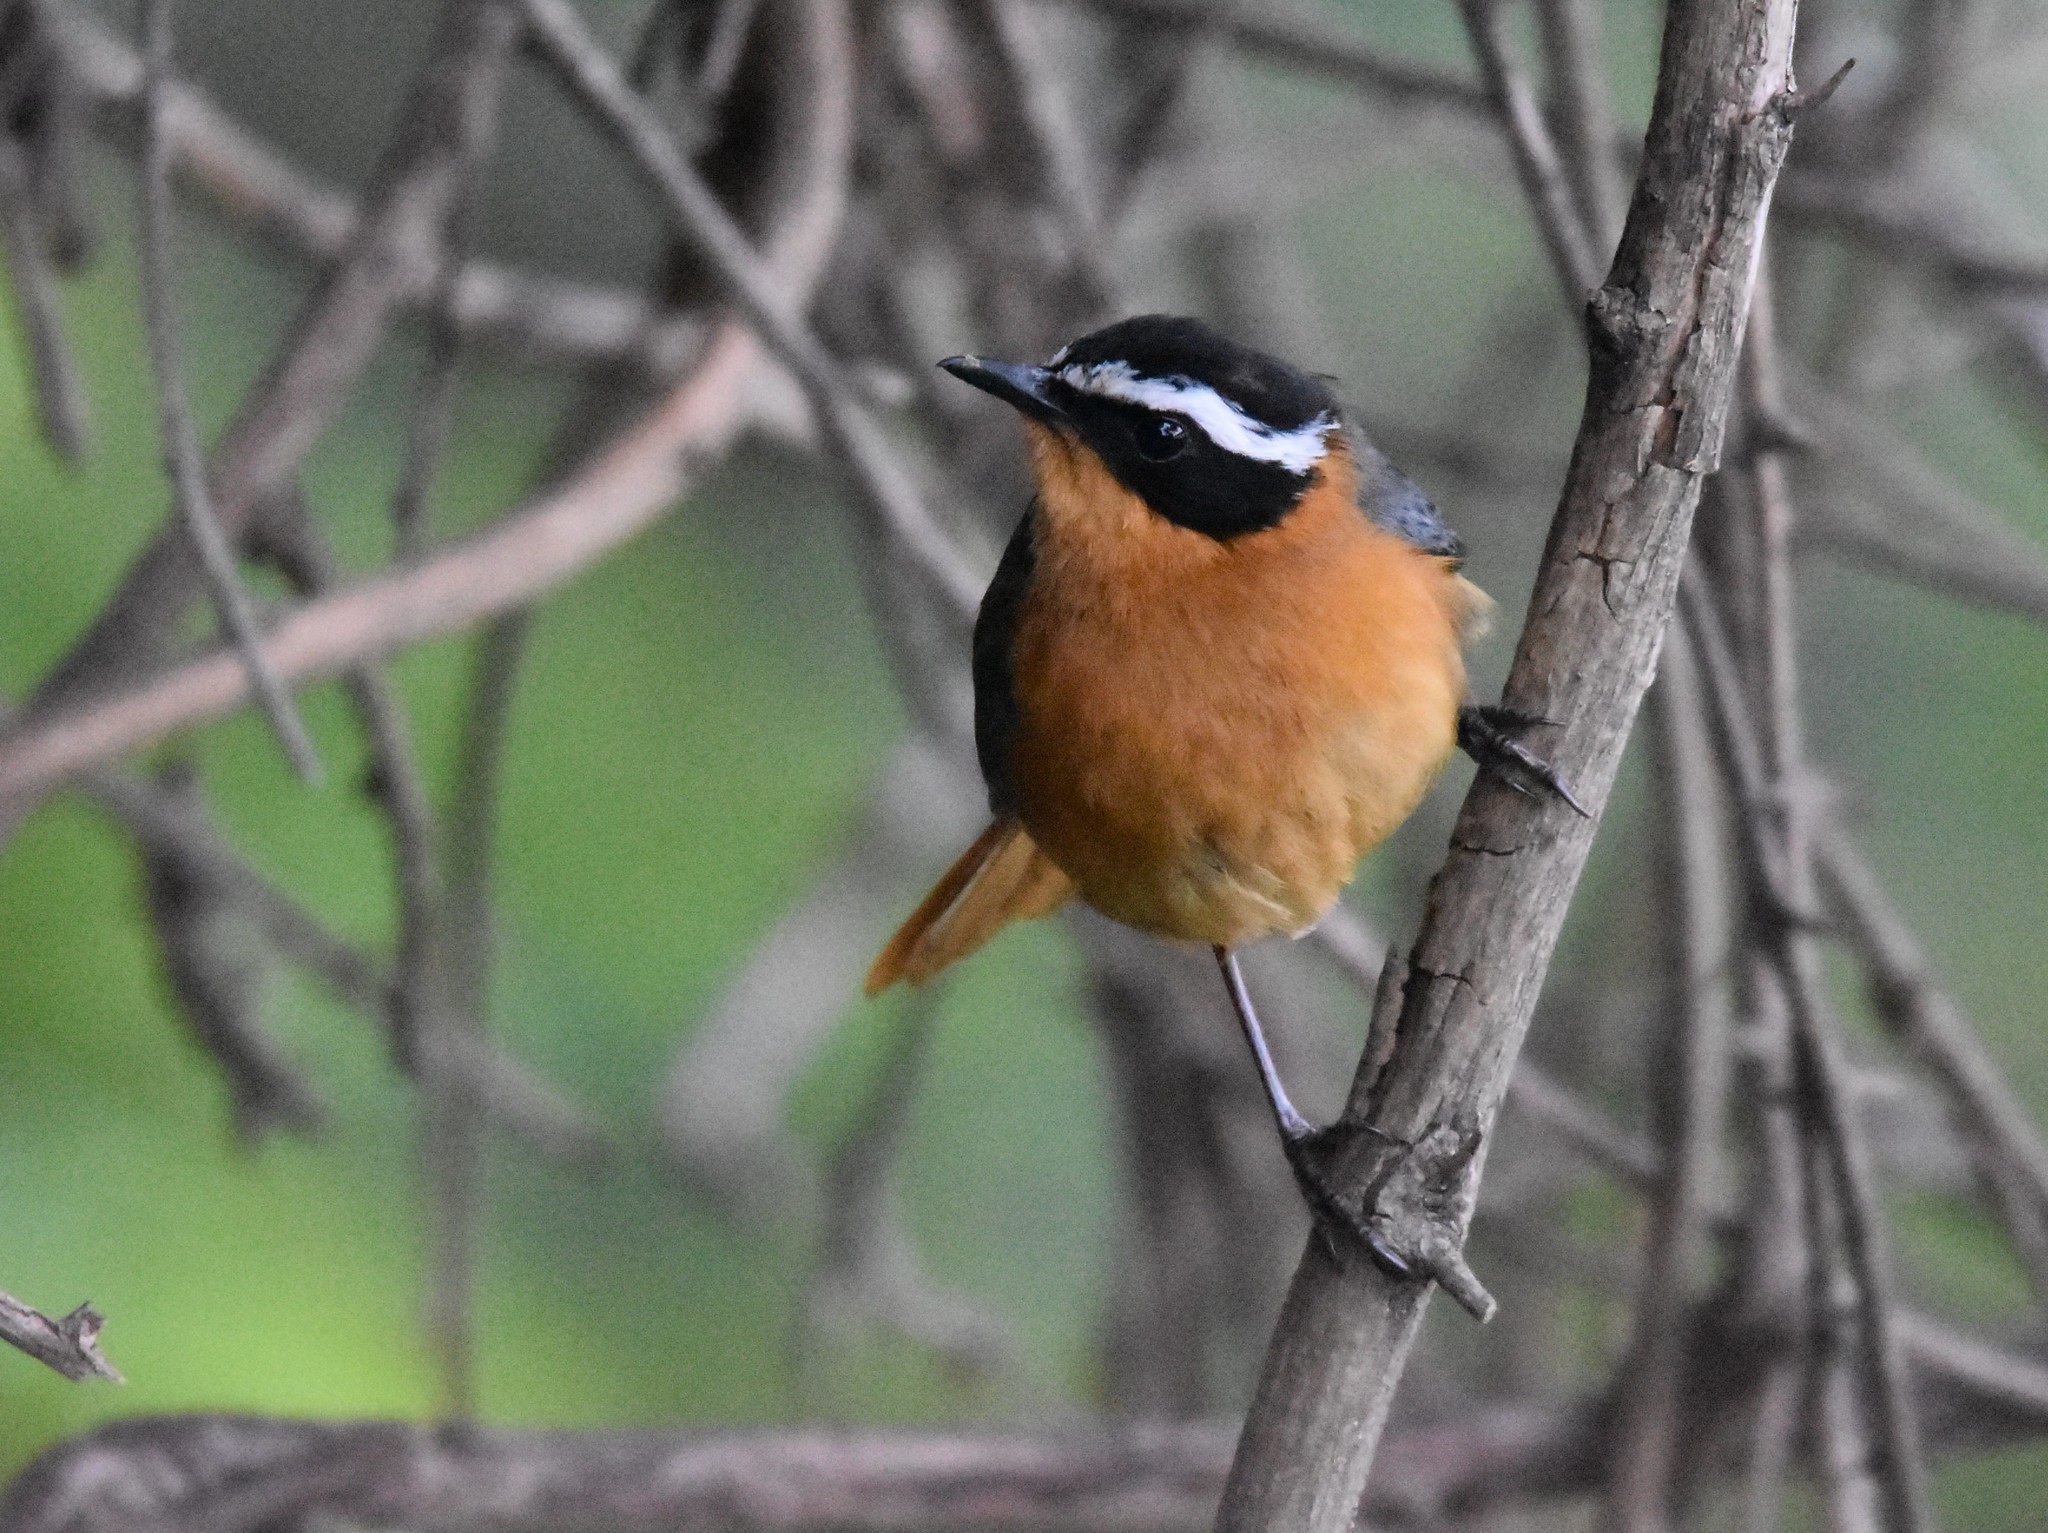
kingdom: Animalia
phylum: Chordata
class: Aves
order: Passeriformes
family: Muscicapidae
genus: Cossypha
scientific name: Cossypha heuglini
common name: White-browed robin-chat
